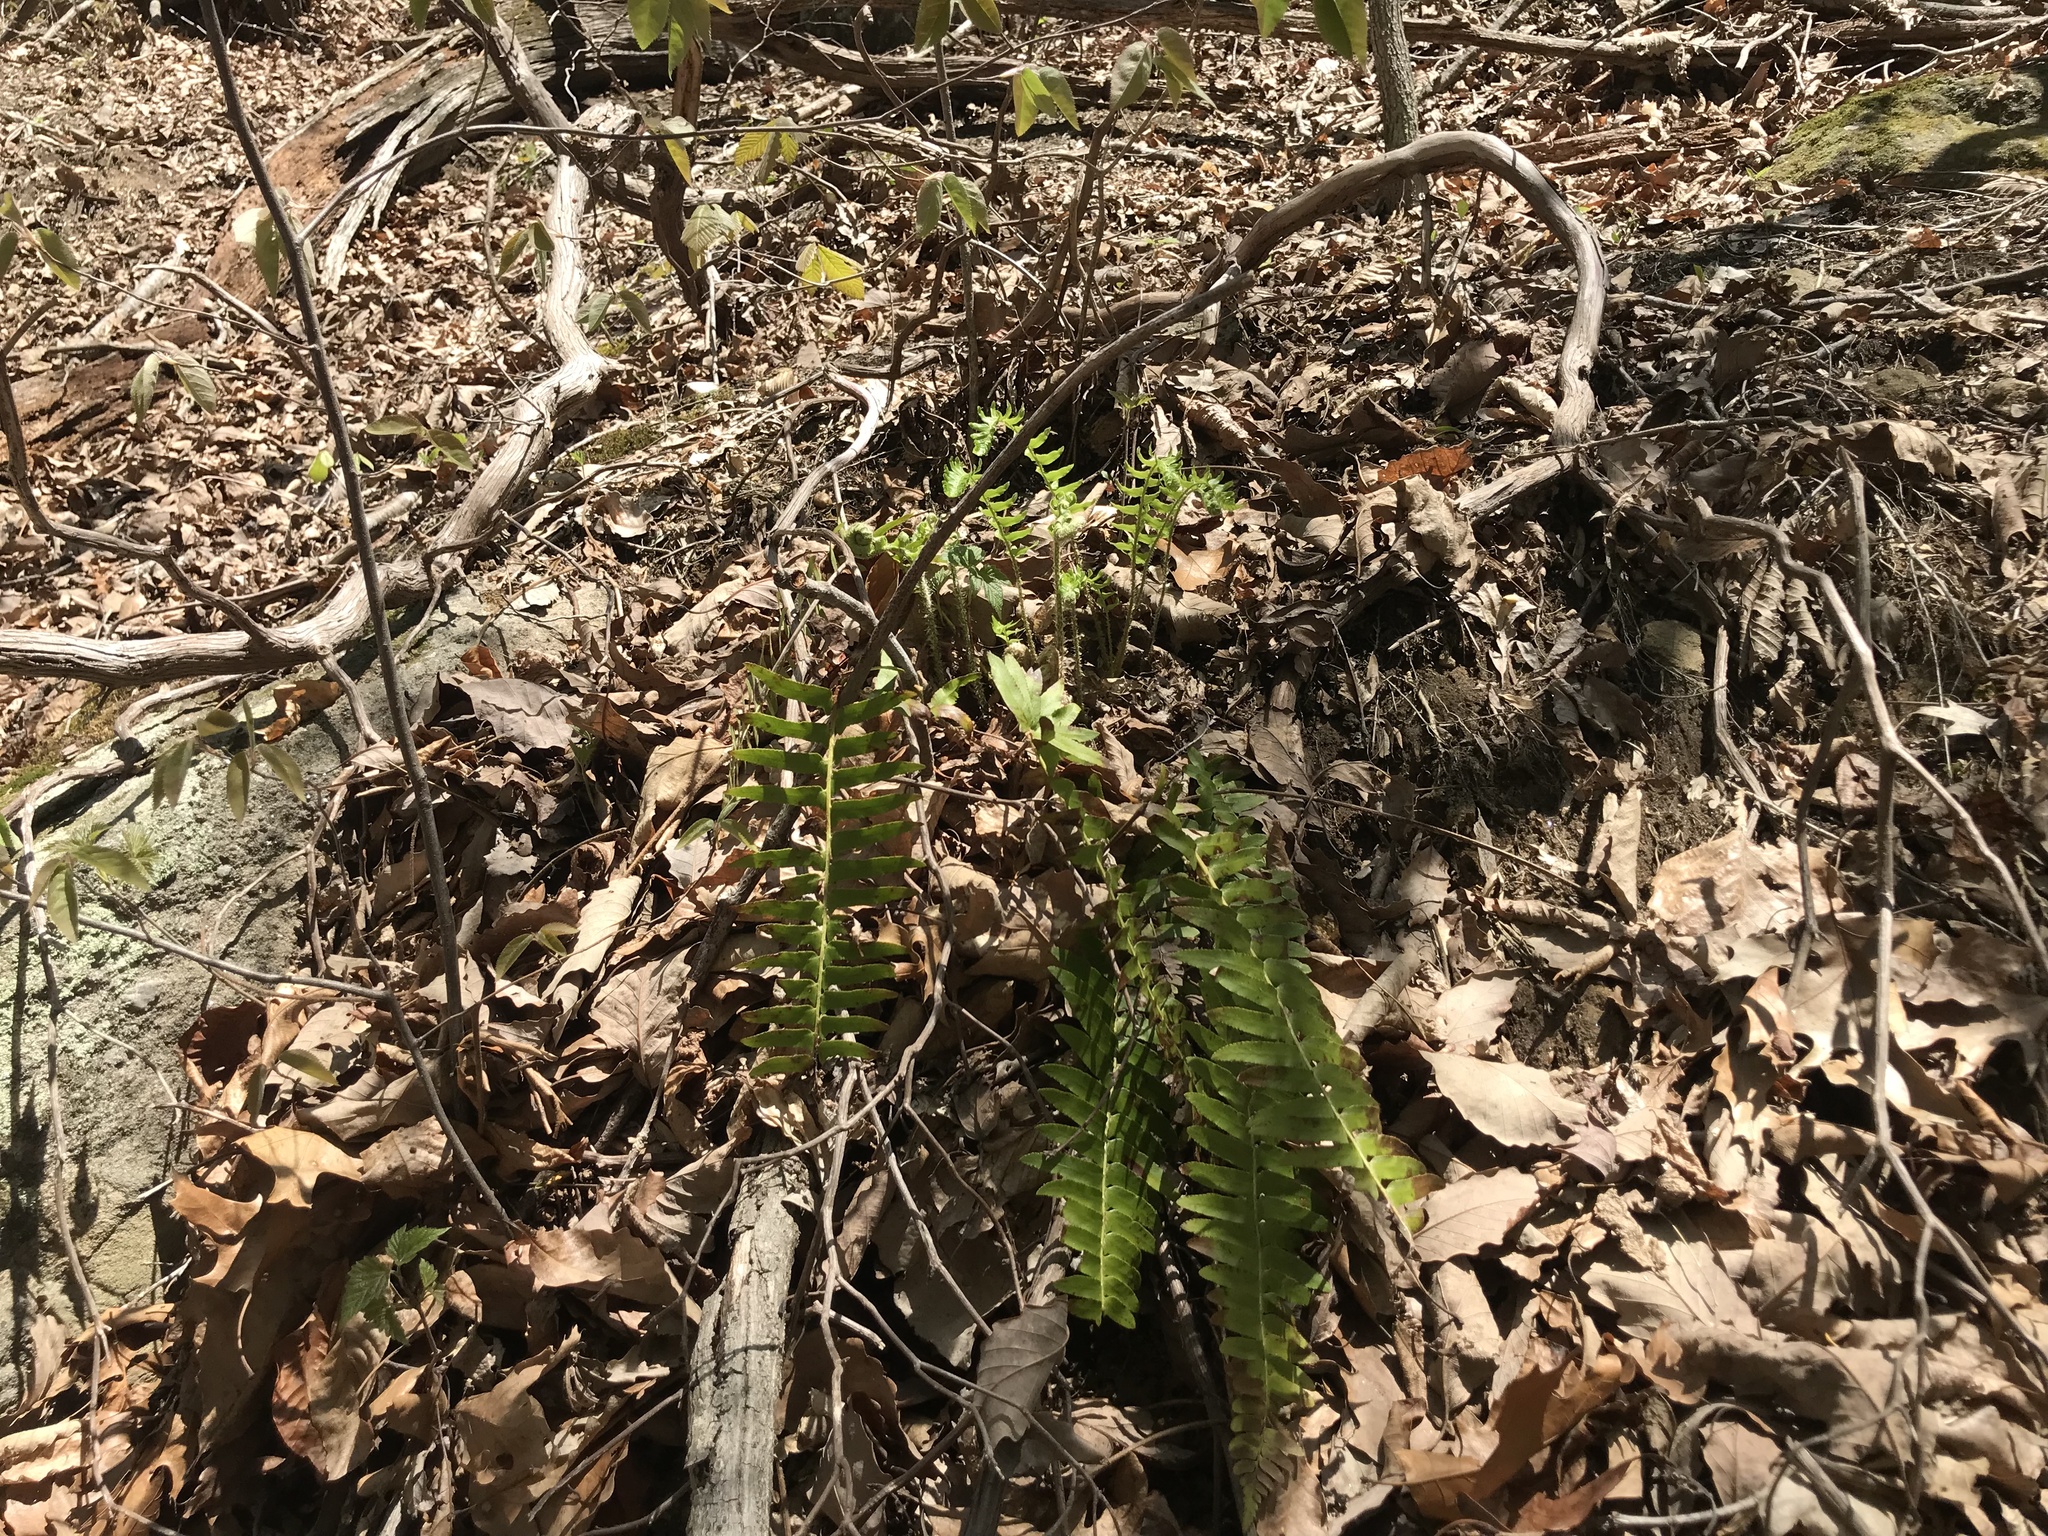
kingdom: Plantae
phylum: Tracheophyta
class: Polypodiopsida
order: Polypodiales
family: Dryopteridaceae
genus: Polystichum
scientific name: Polystichum acrostichoides
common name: Christmas fern
